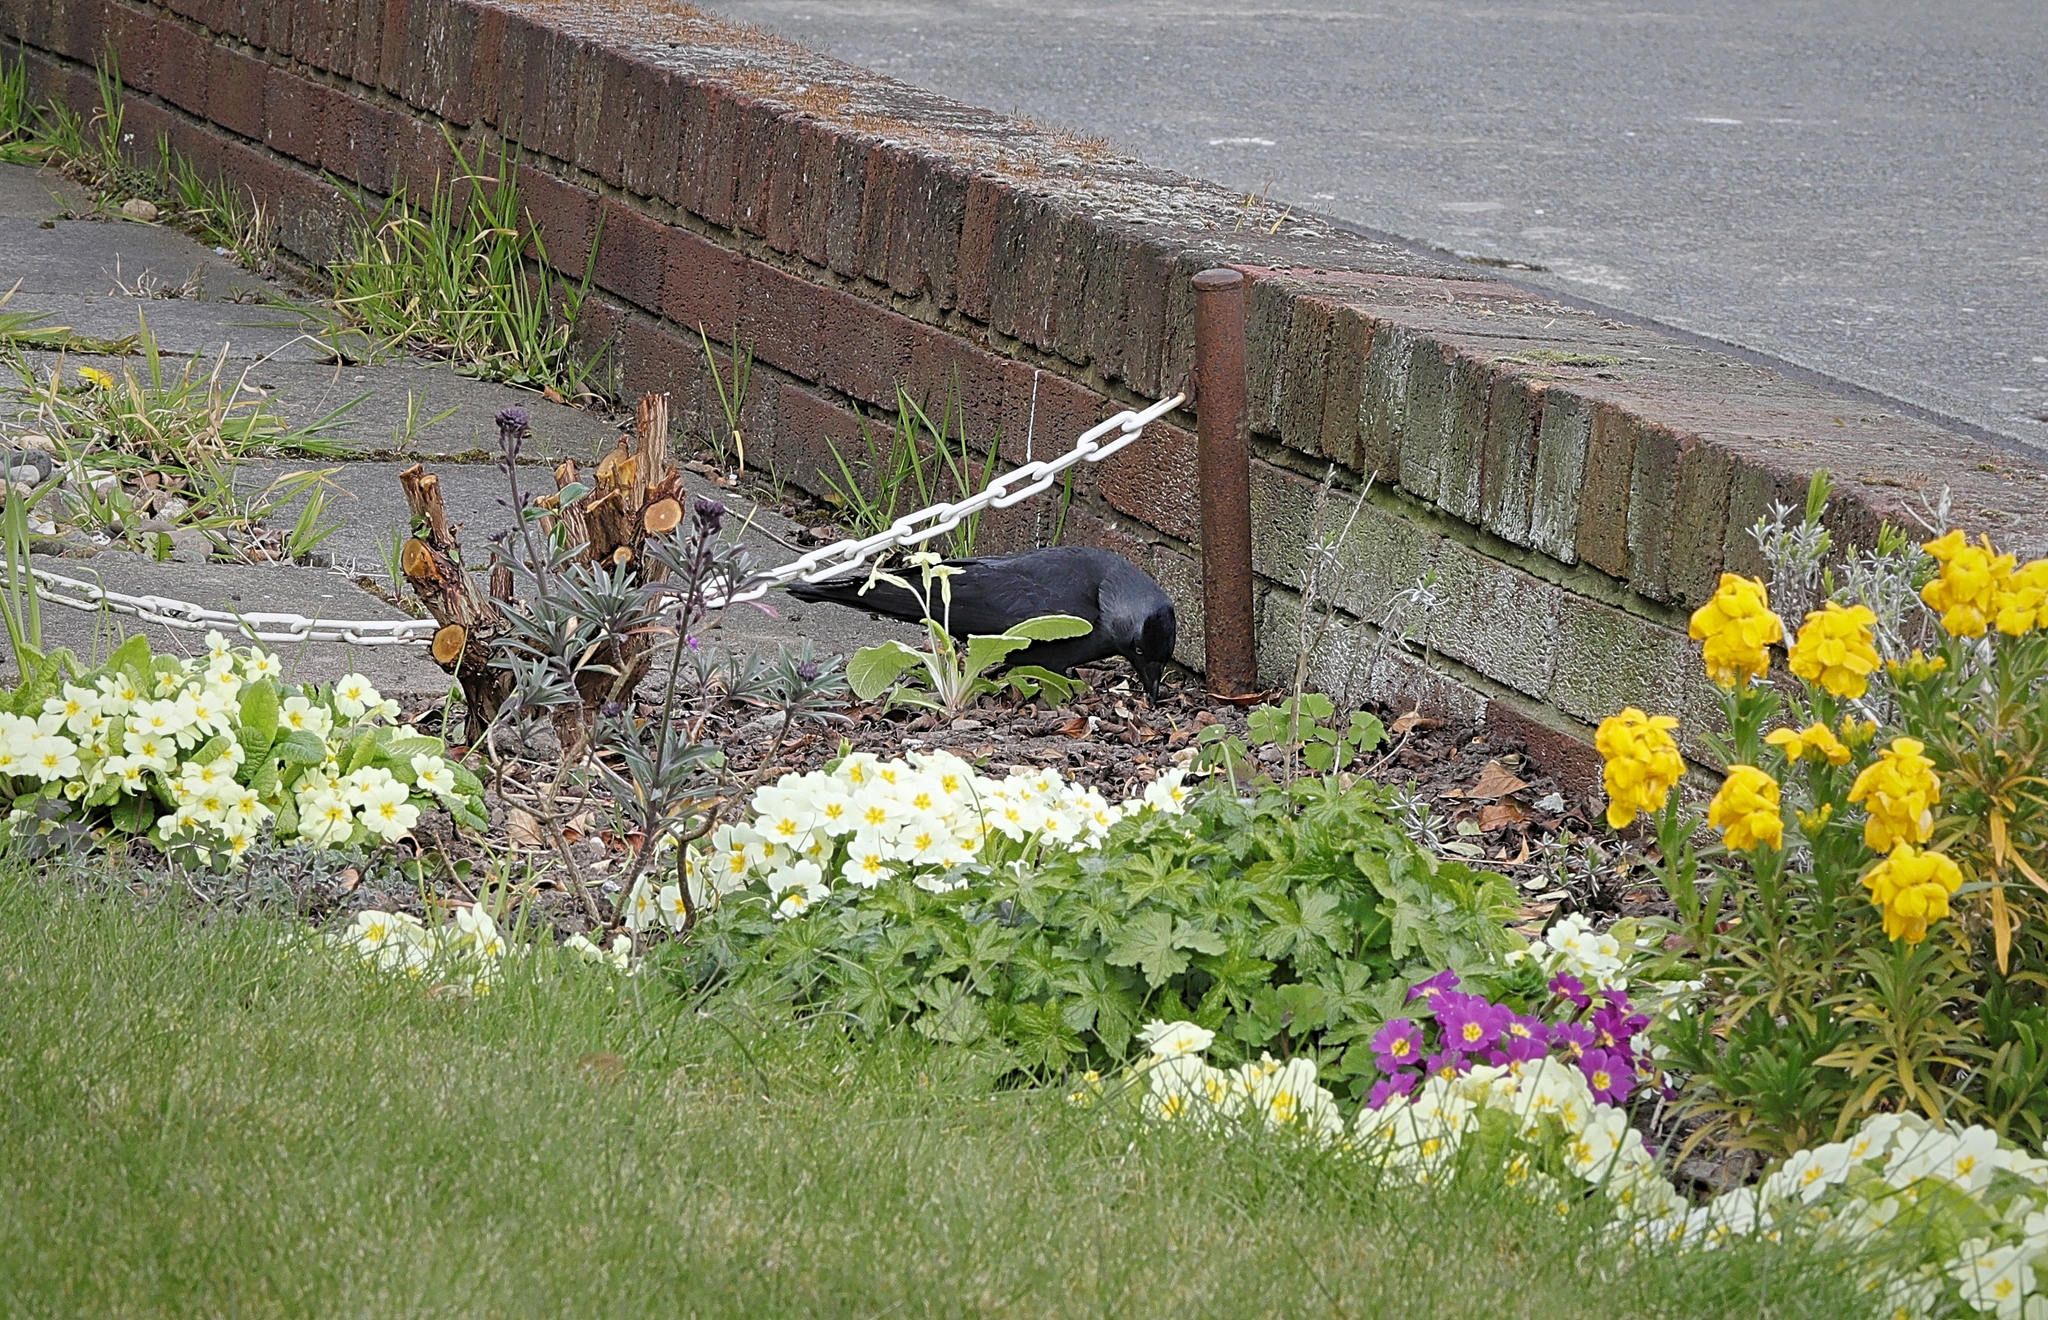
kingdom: Animalia
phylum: Chordata
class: Aves
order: Passeriformes
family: Corvidae
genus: Coloeus
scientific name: Coloeus monedula
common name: Western jackdaw
